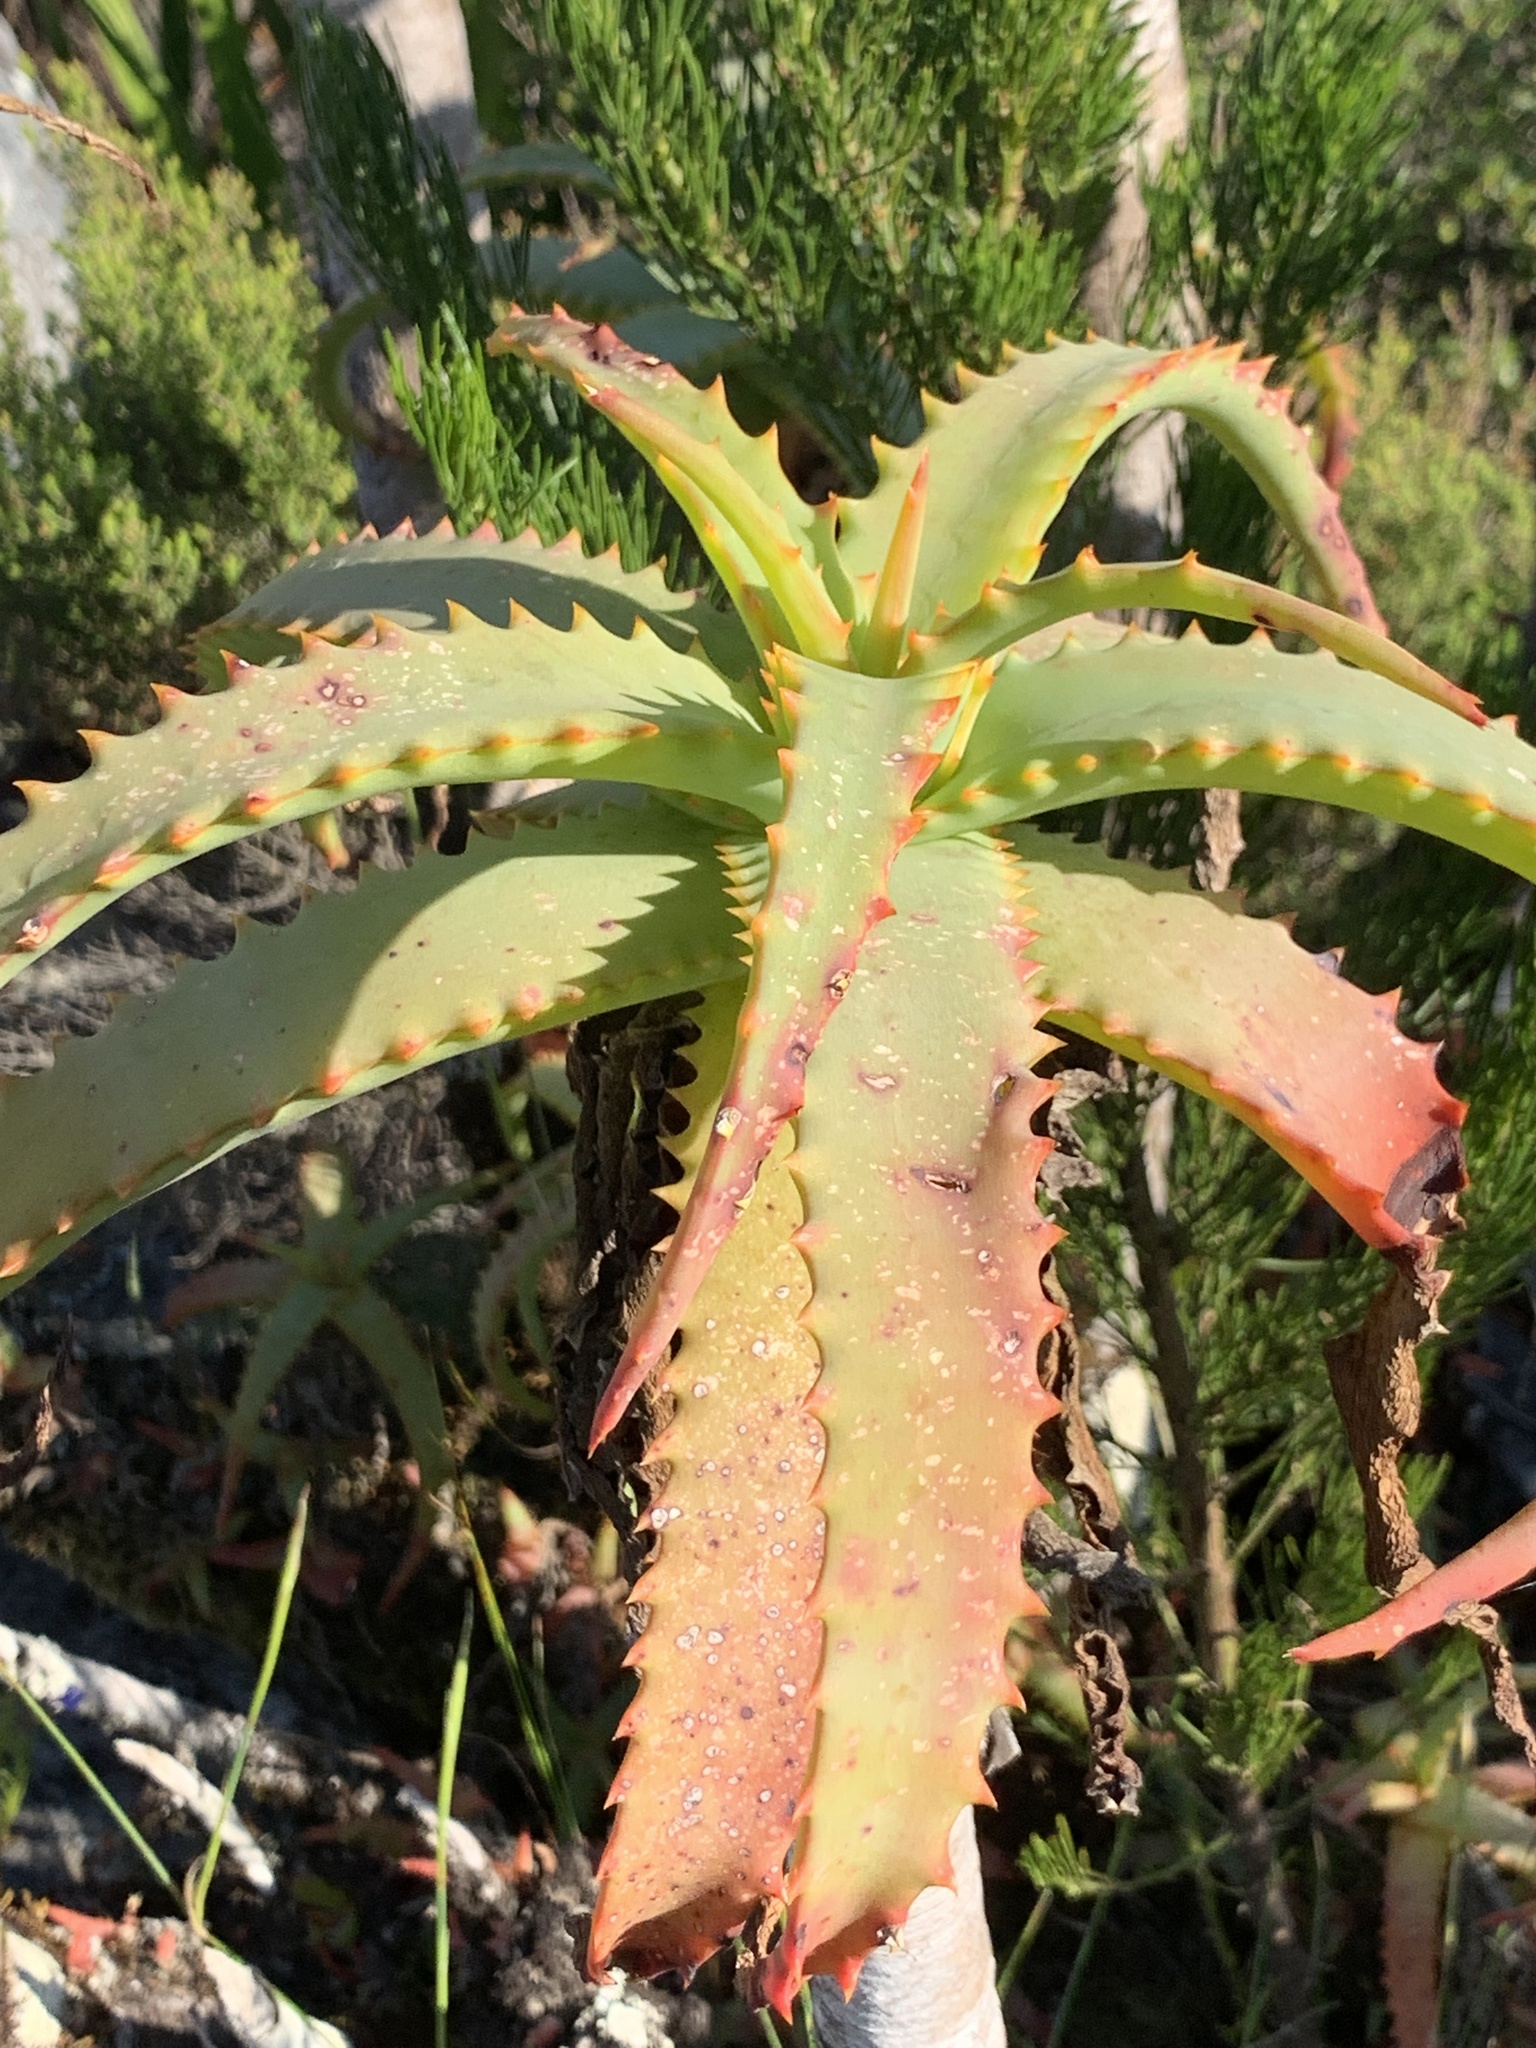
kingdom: Plantae
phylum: Tracheophyta
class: Liliopsida
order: Asparagales
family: Asphodelaceae
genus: Aloe
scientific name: Aloe arborescens
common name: Candelabra aloe
